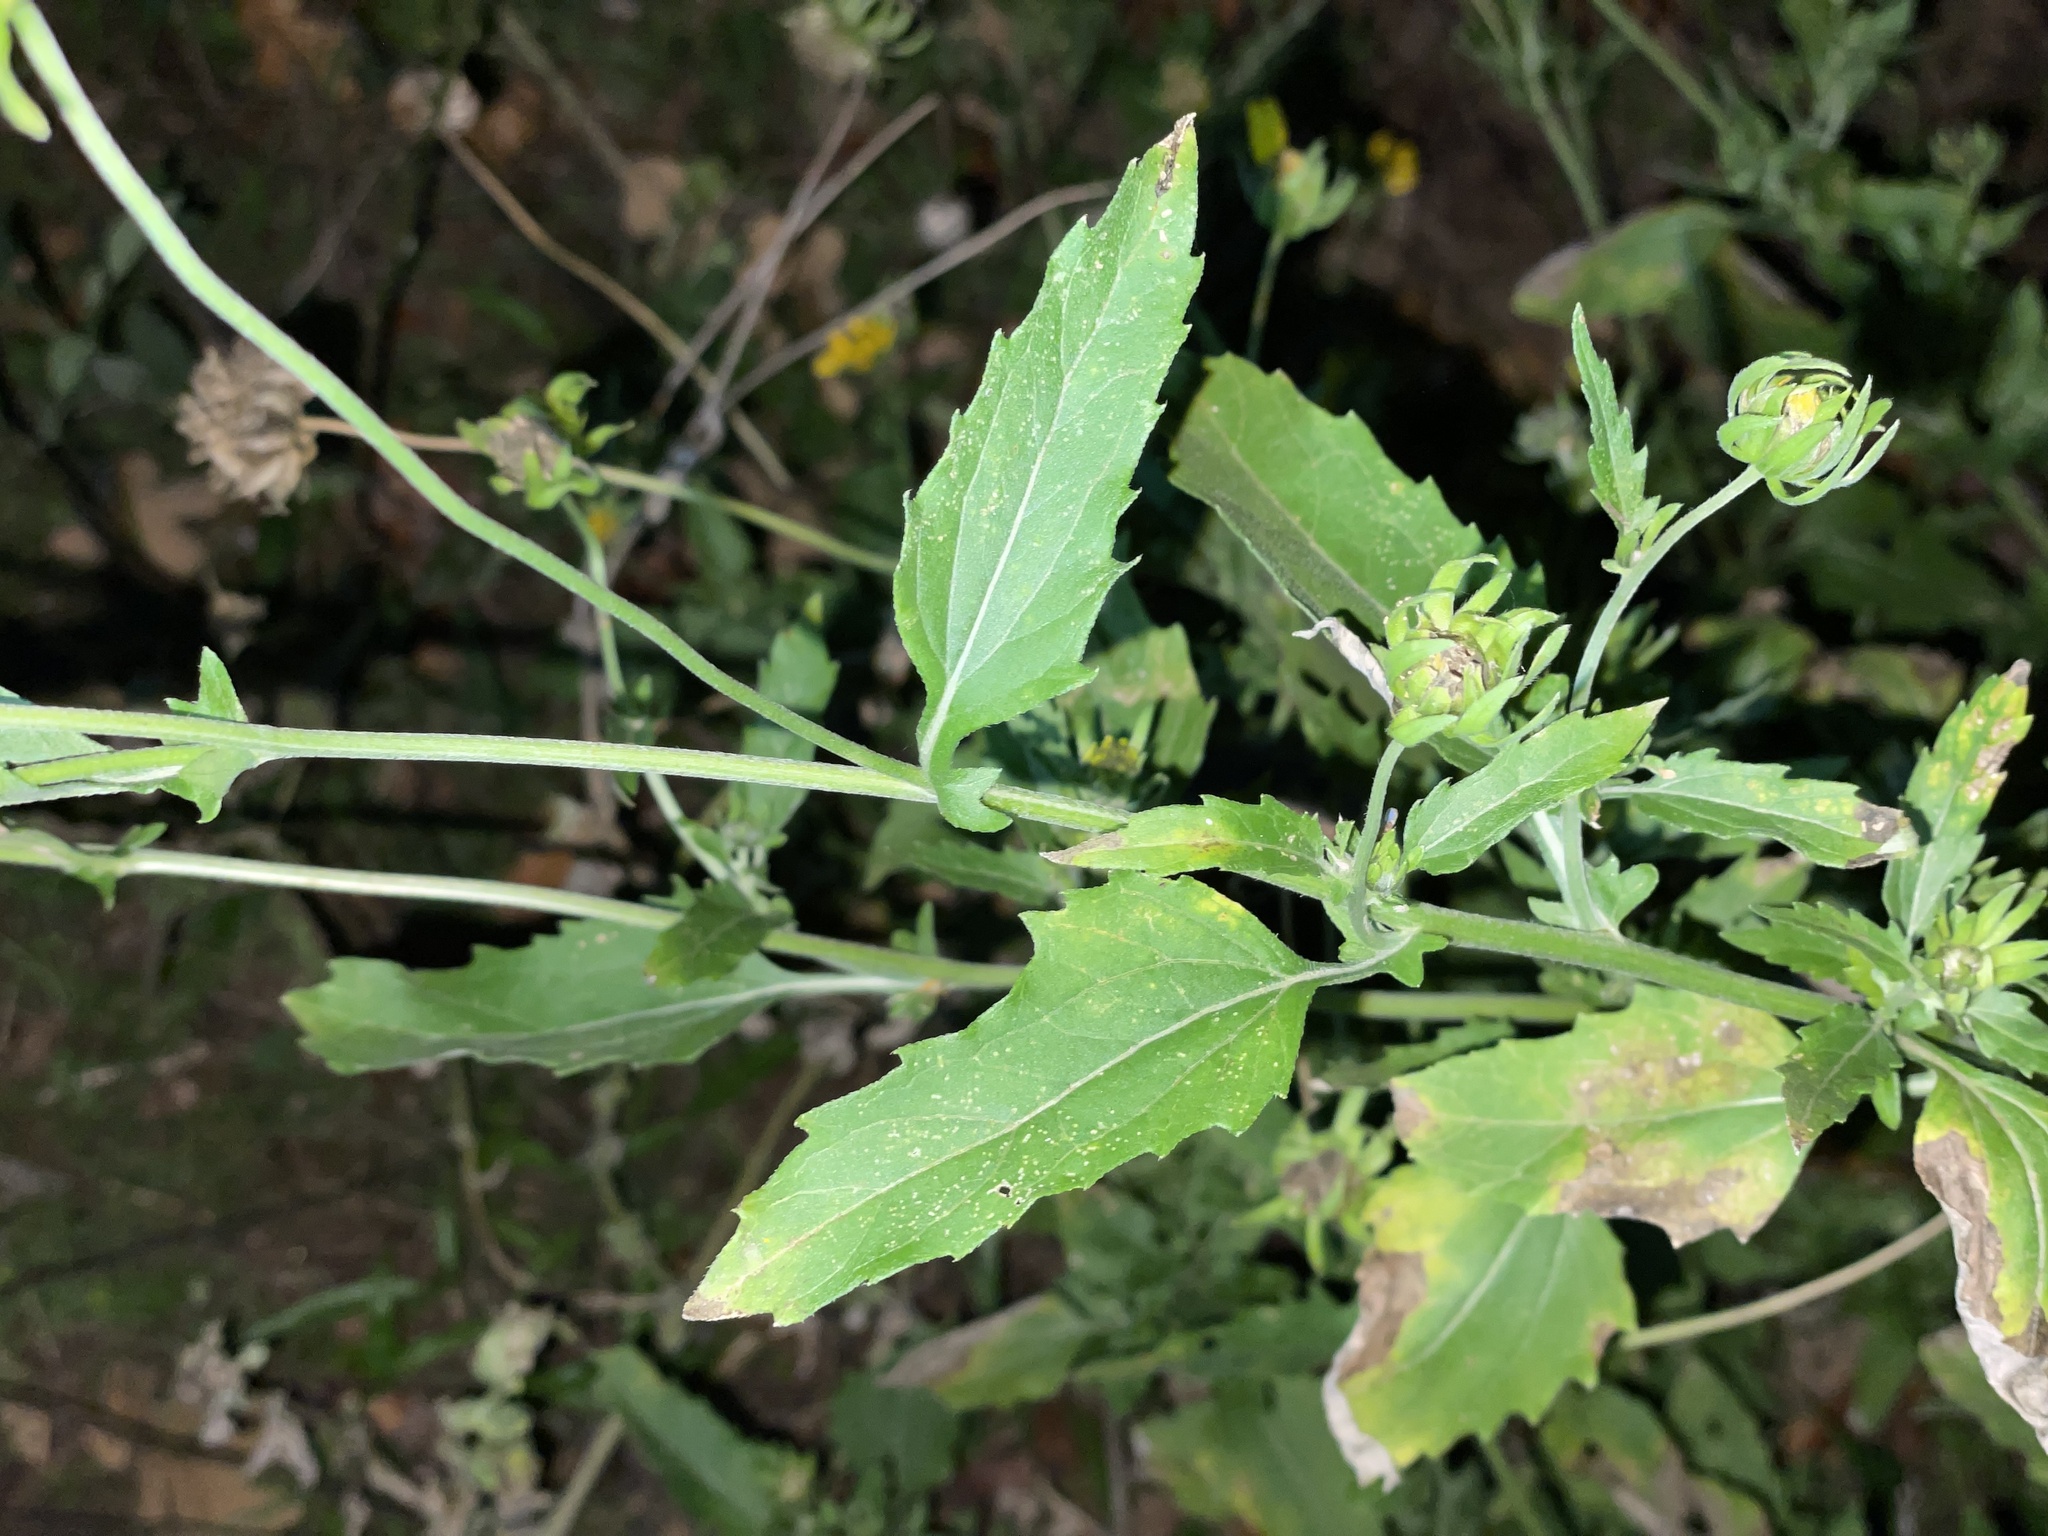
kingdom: Plantae
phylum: Tracheophyta
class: Magnoliopsida
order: Asterales
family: Asteraceae
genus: Verbesina
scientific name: Verbesina encelioides
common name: Golden crownbeard
